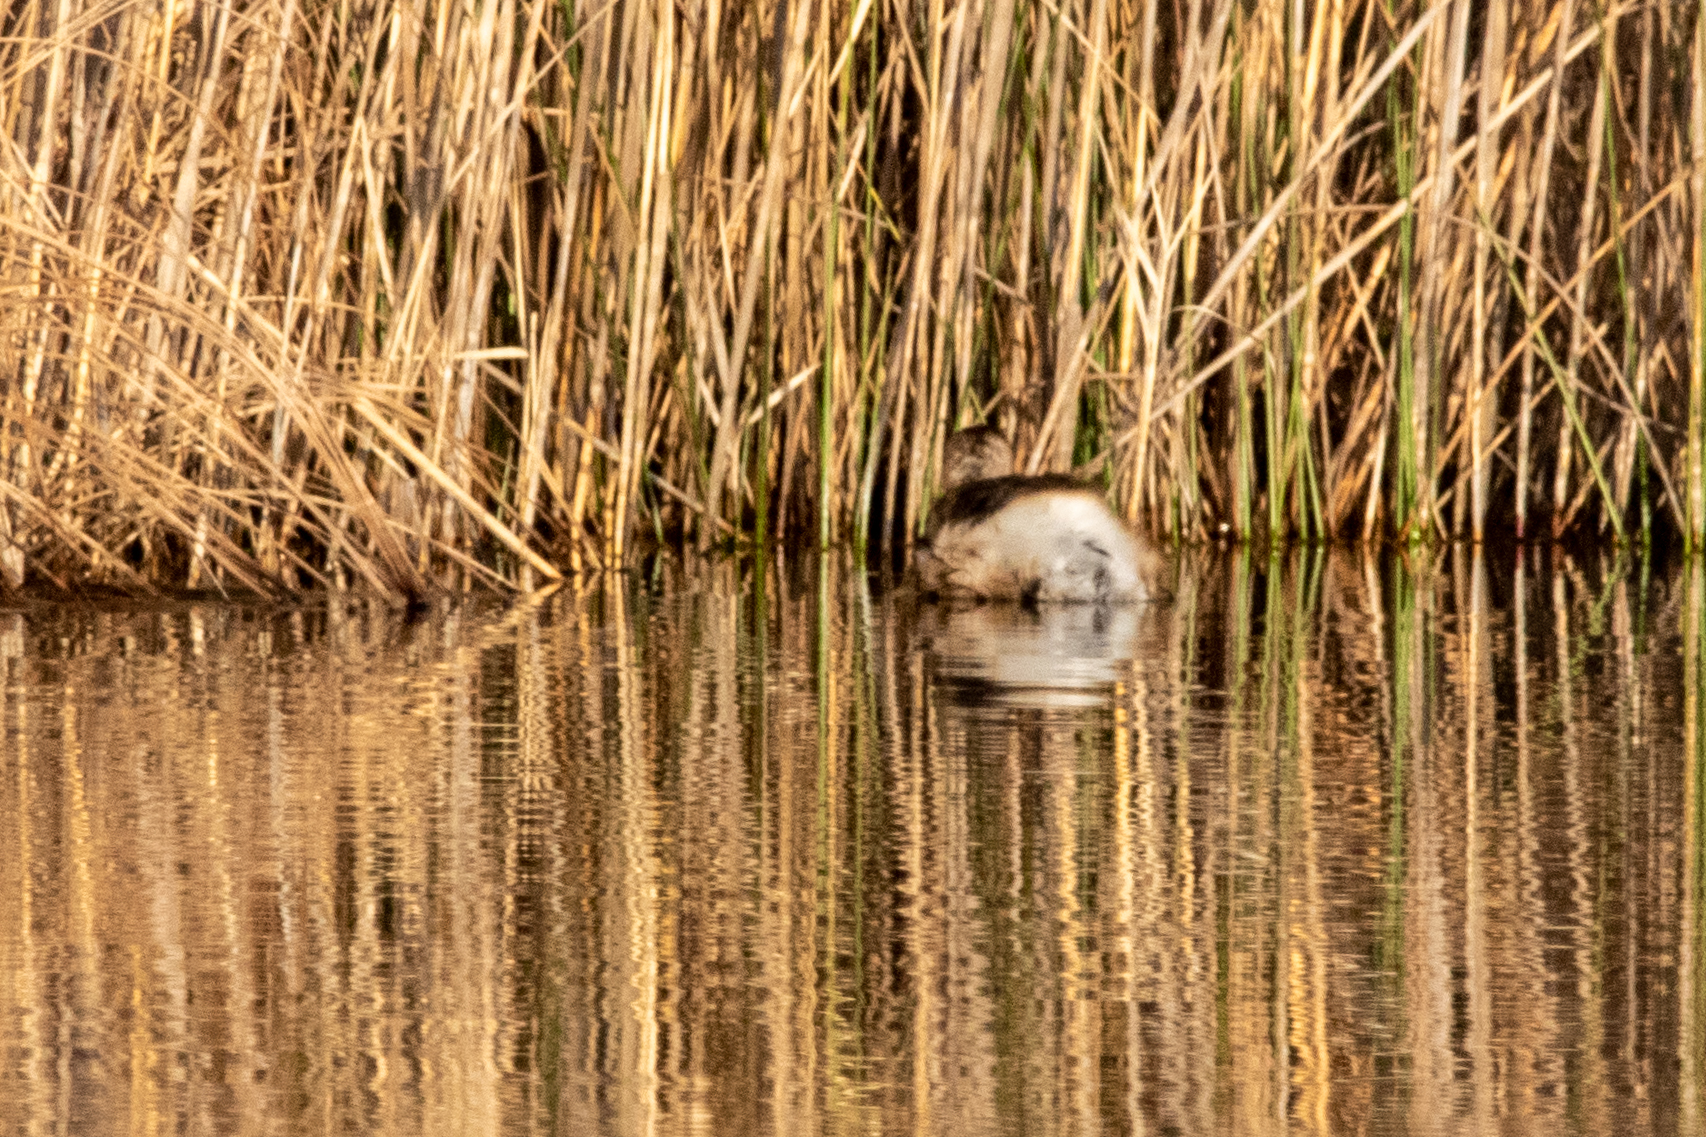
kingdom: Animalia
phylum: Chordata
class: Aves
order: Podicipediformes
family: Podicipedidae
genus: Tachybaptus
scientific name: Tachybaptus ruficollis
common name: Little grebe
